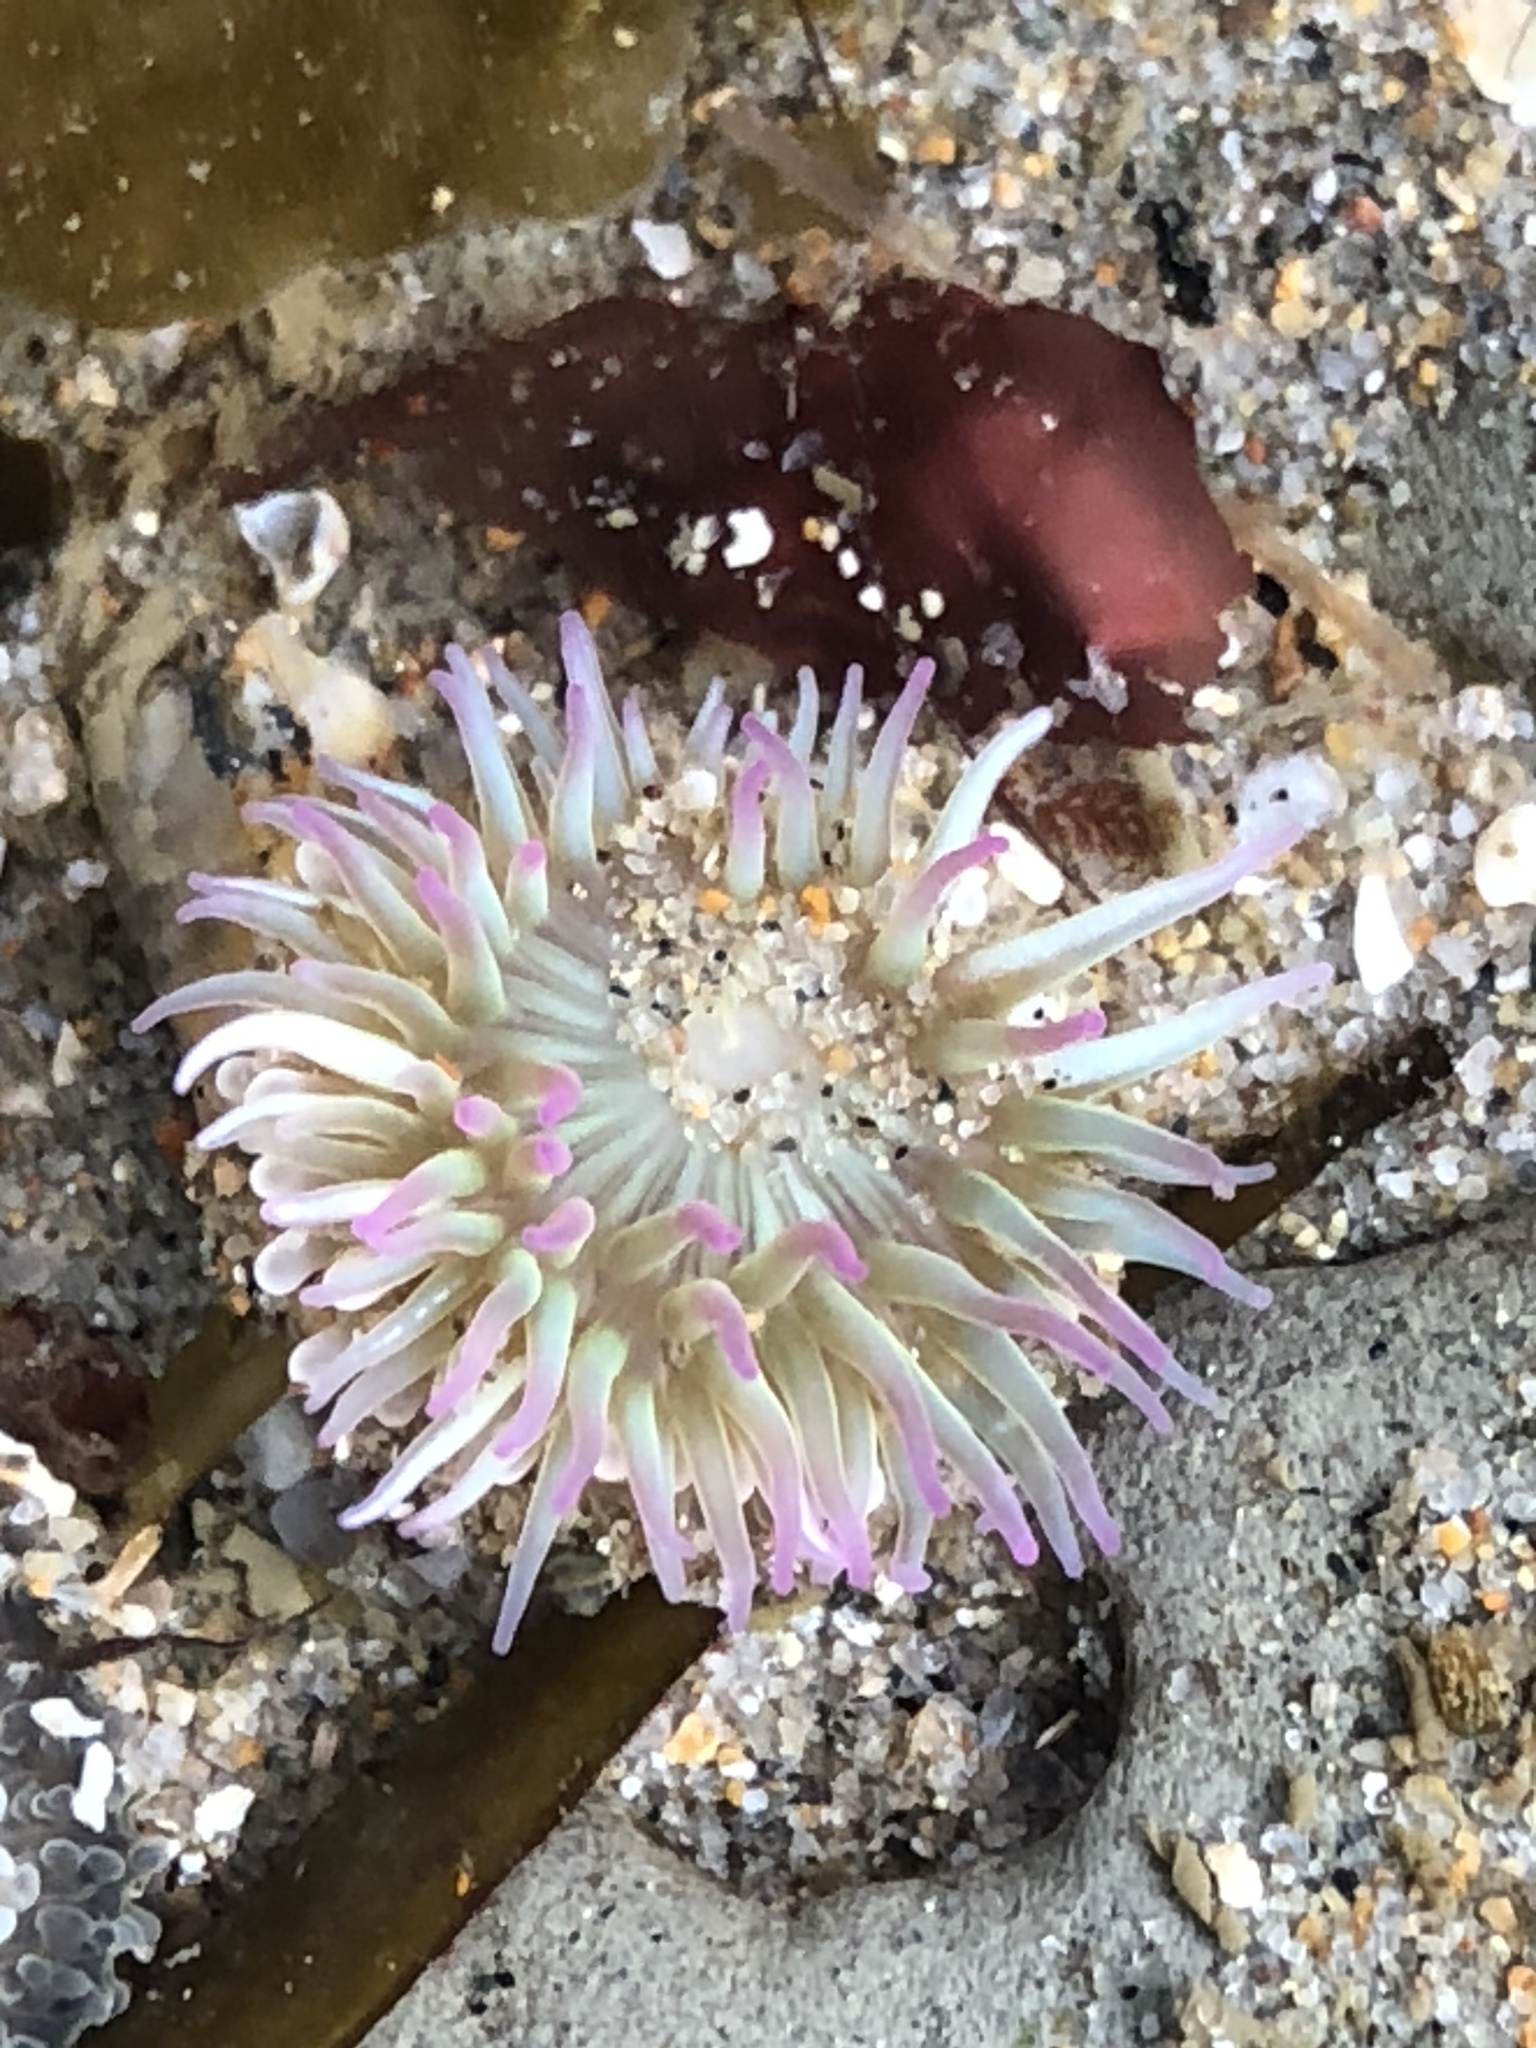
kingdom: Animalia
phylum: Cnidaria
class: Anthozoa
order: Actiniaria
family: Actiniidae
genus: Anthopleura
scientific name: Anthopleura elegantissima
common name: Clonal anemone
